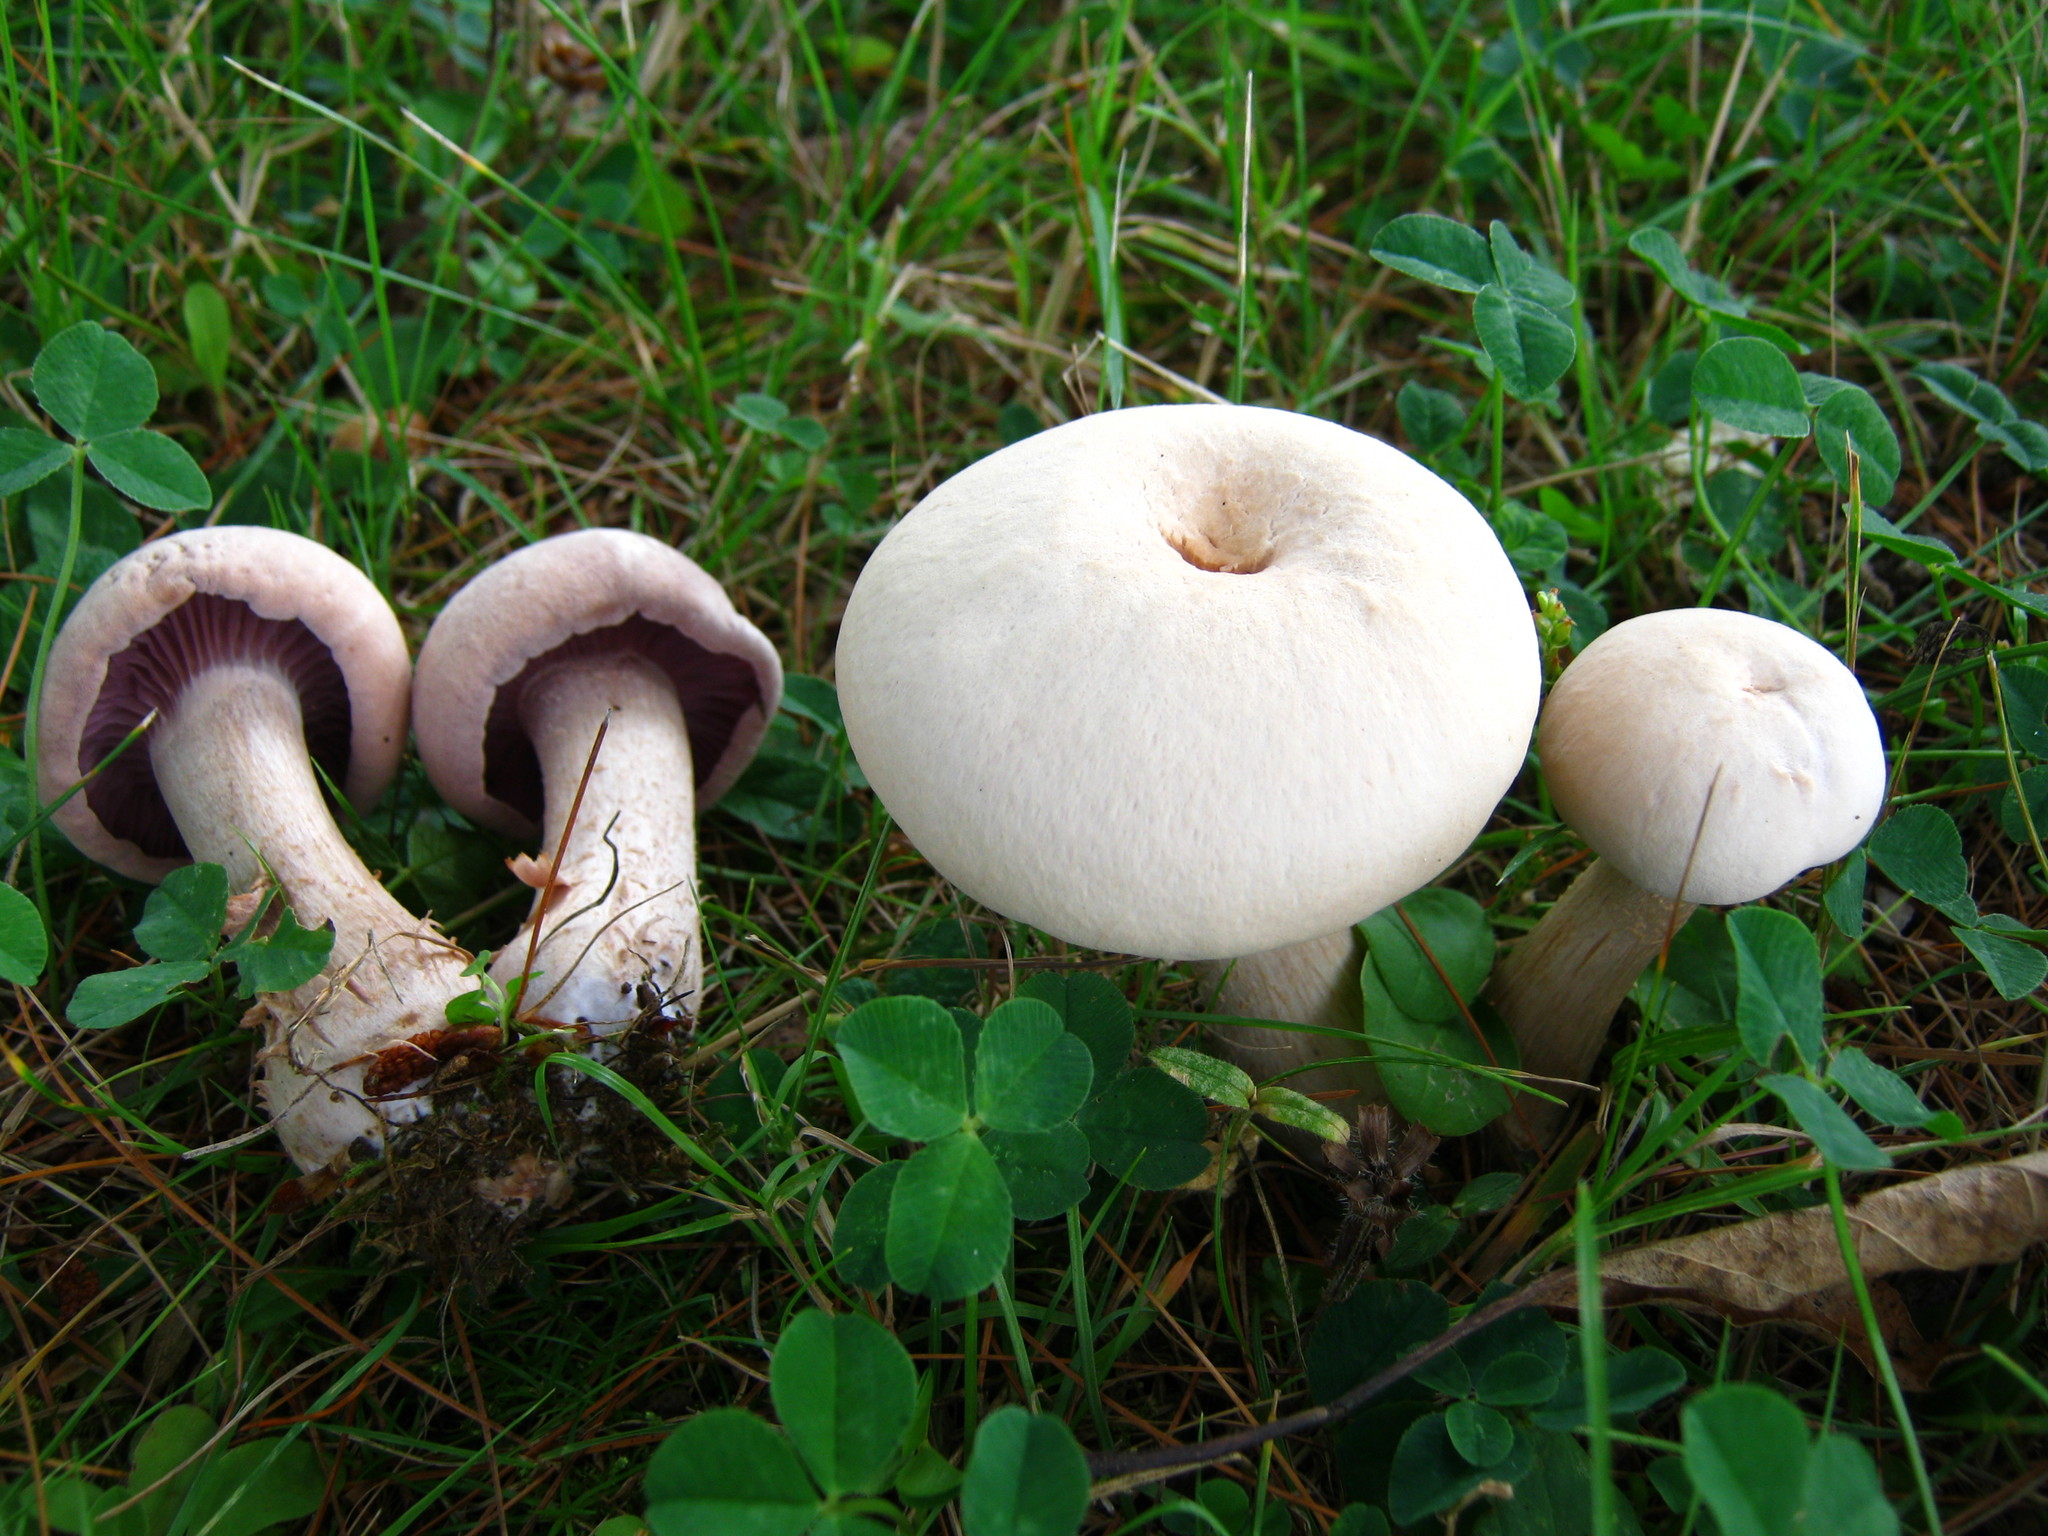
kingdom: Fungi
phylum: Basidiomycota
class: Agaricomycetes
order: Agaricales
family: Hydnangiaceae
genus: Laccaria
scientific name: Laccaria ochropurpurea
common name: Purple laccaria
